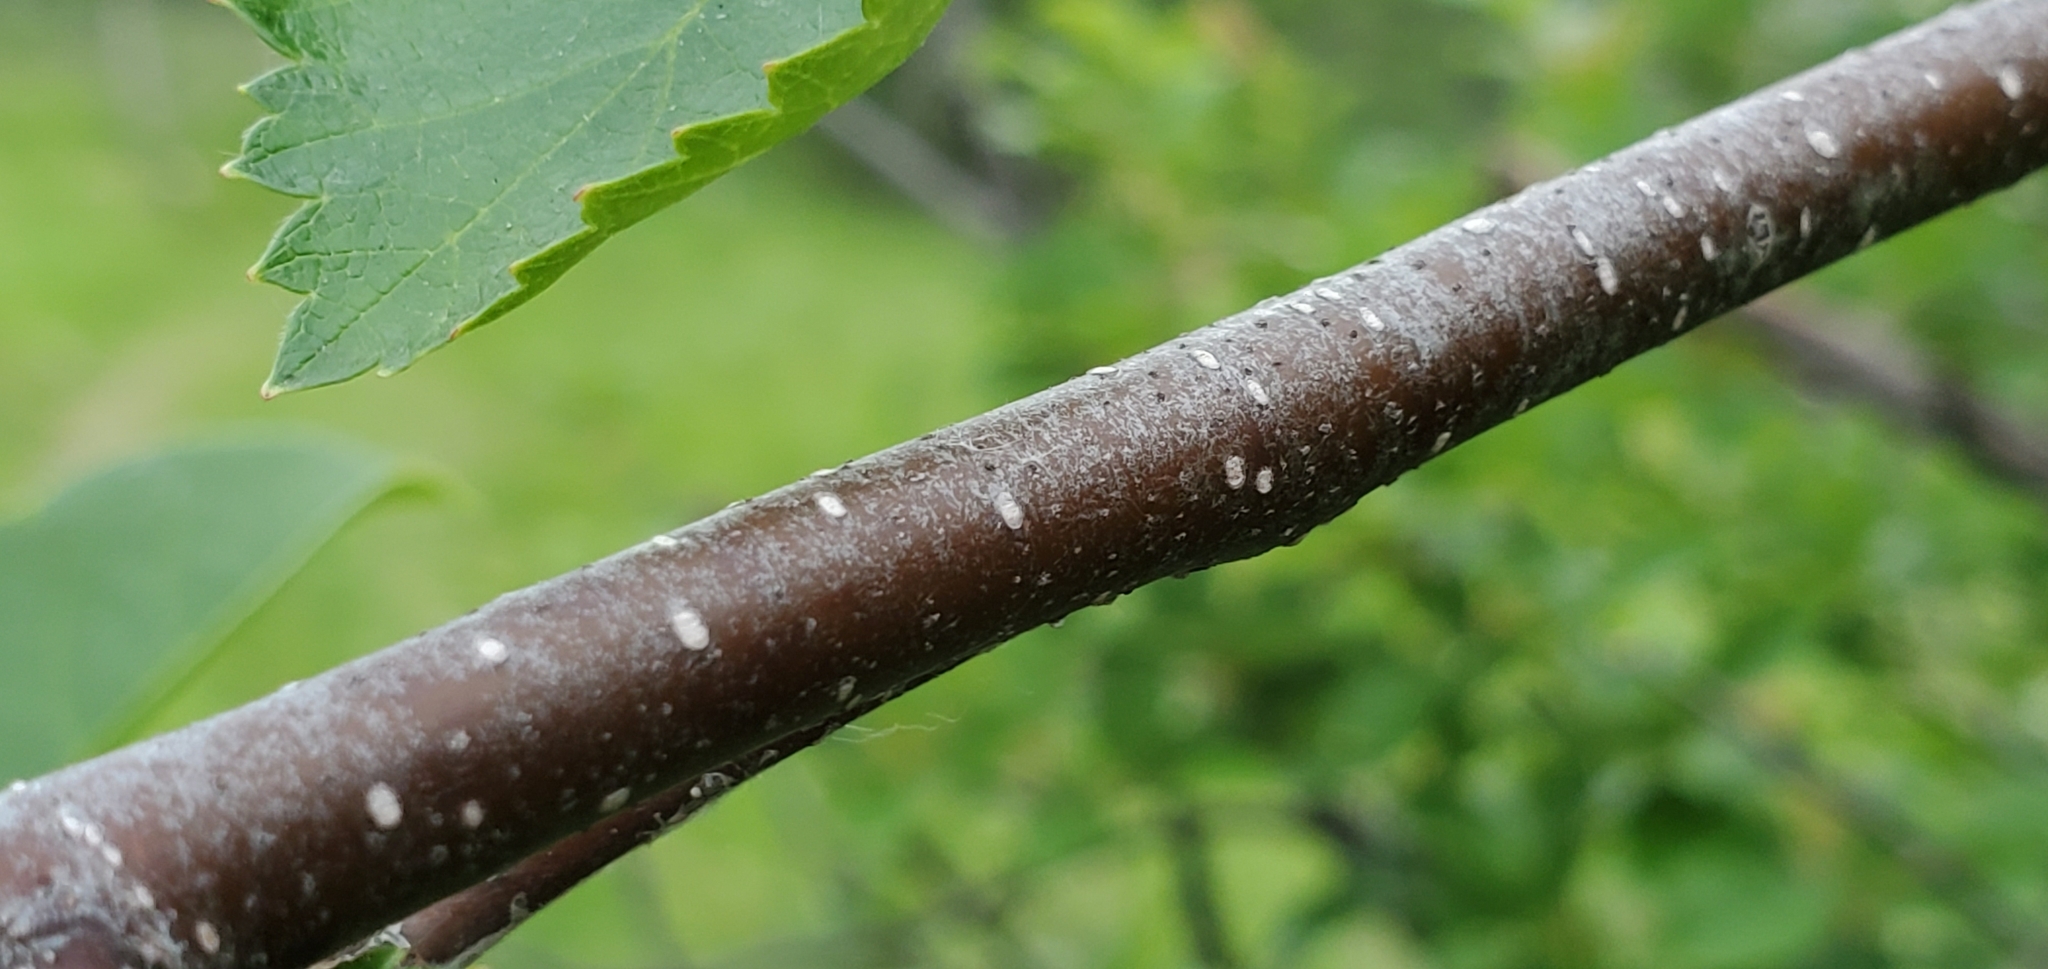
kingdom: Plantae
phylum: Tracheophyta
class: Magnoliopsida
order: Fagales
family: Betulaceae
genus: Betula
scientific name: Betula occidentalis
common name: River birch
